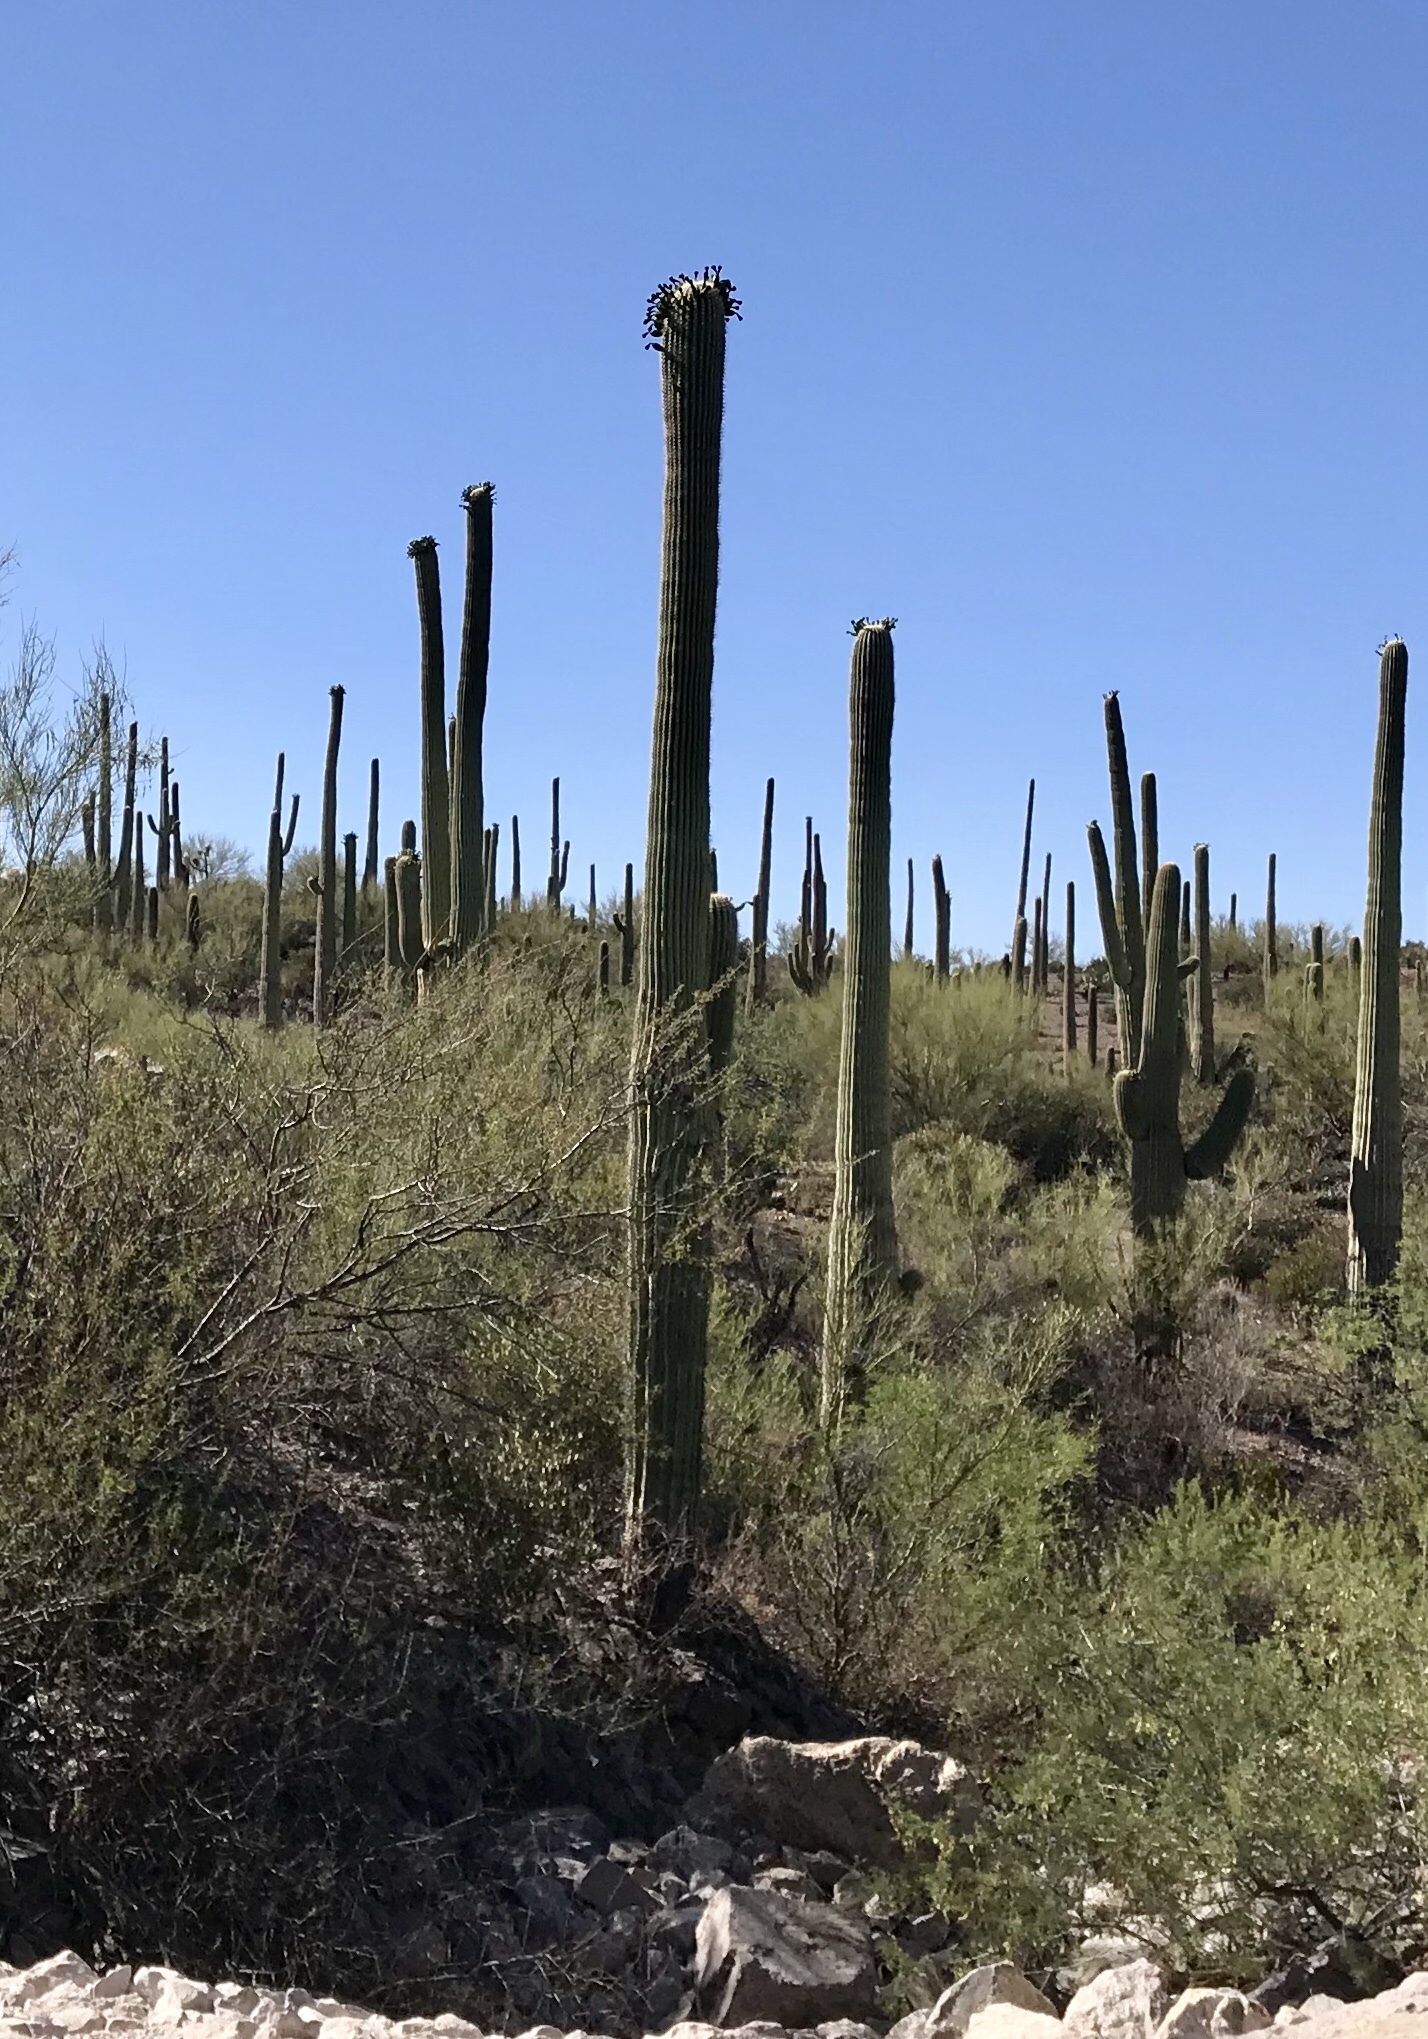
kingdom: Plantae
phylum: Tracheophyta
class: Magnoliopsida
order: Caryophyllales
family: Cactaceae
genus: Carnegiea
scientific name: Carnegiea gigantea
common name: Saguaro
